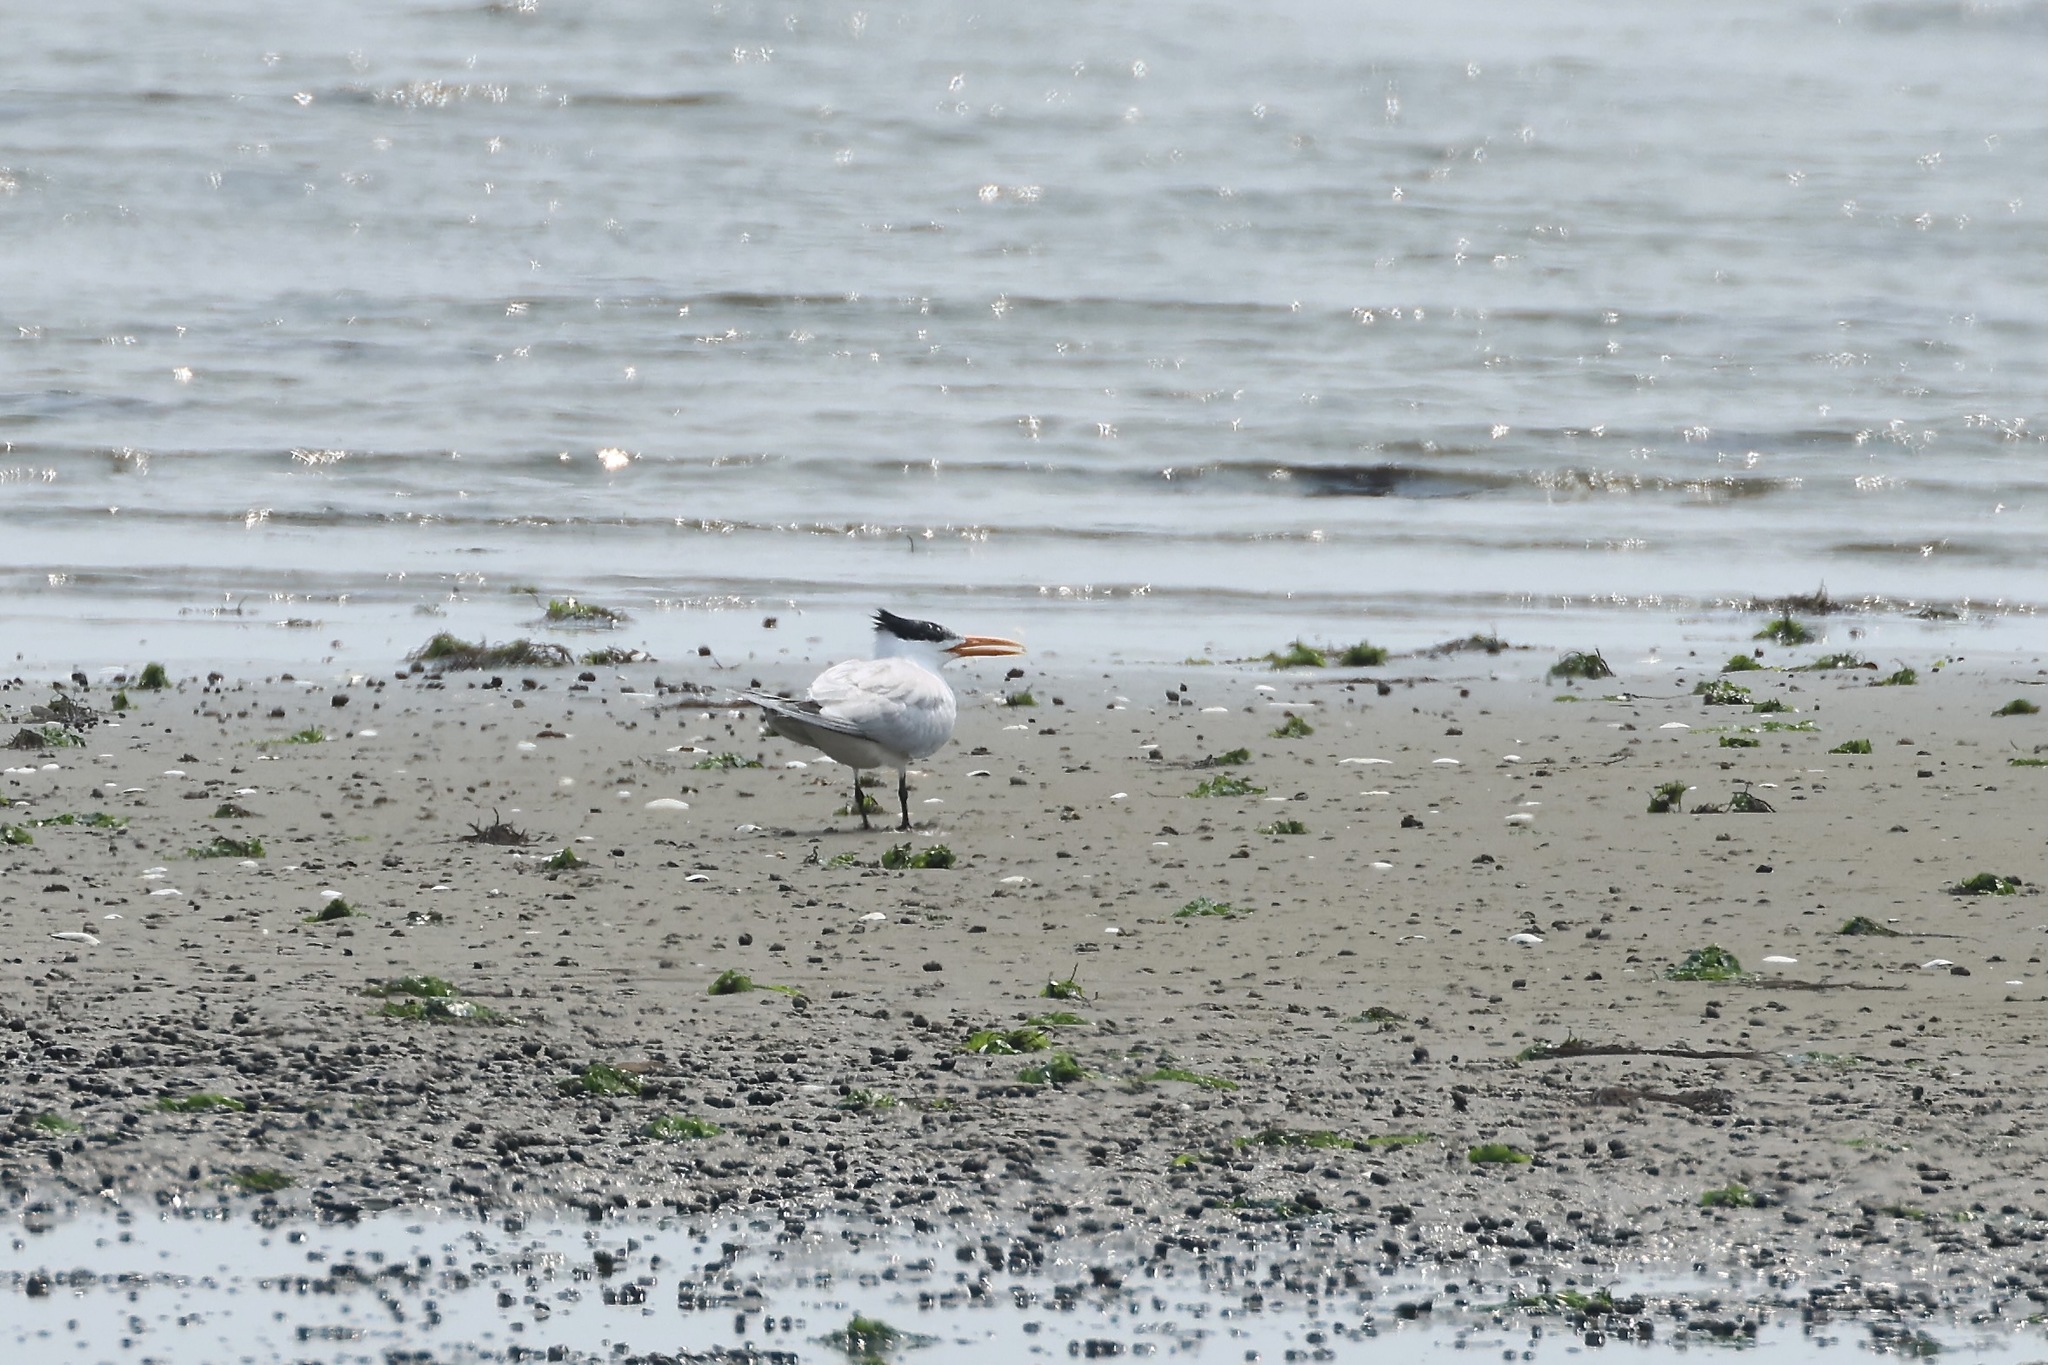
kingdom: Animalia
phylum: Chordata
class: Aves
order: Charadriiformes
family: Laridae
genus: Thalasseus
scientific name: Thalasseus maximus
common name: Royal tern
